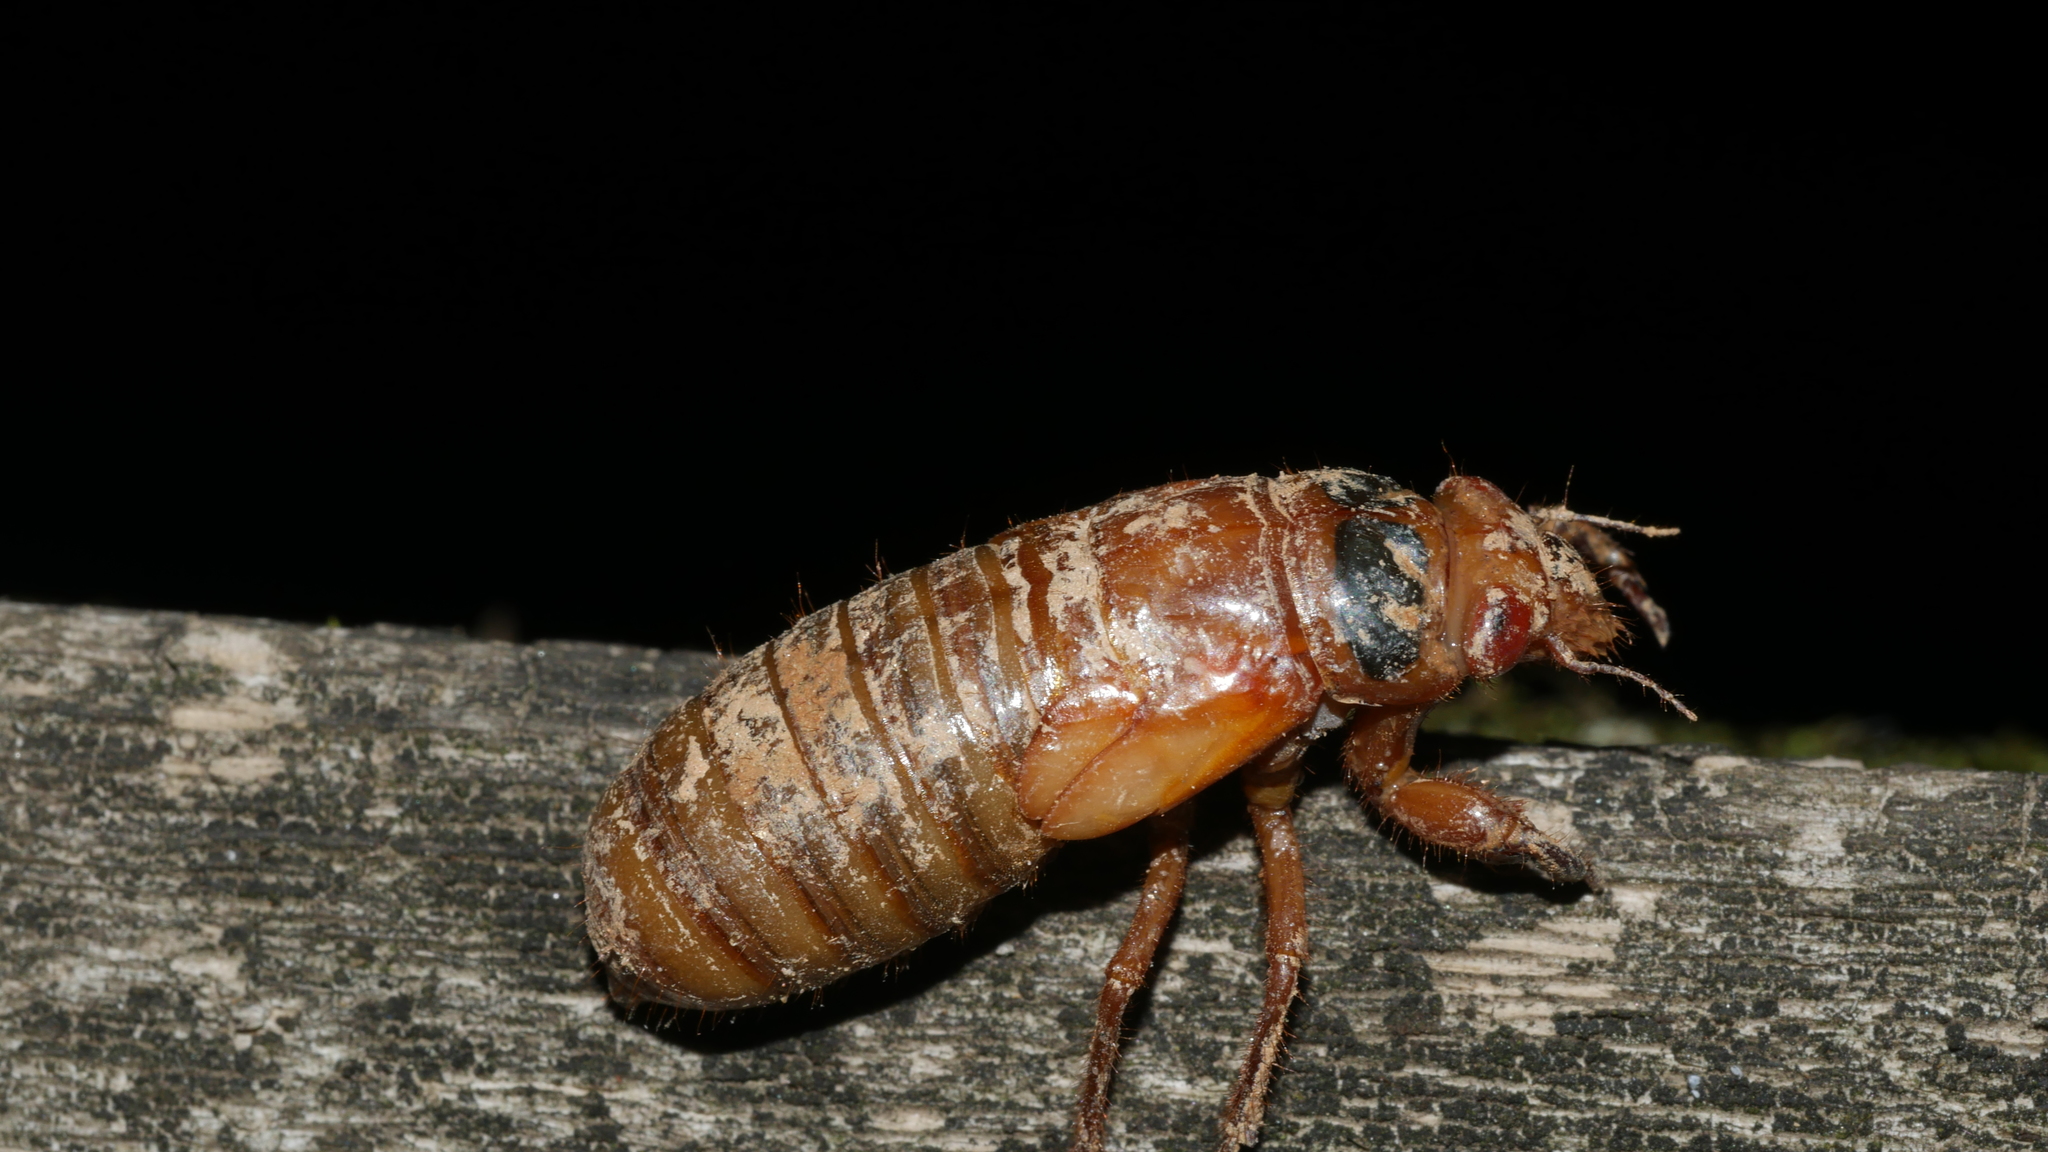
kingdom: Animalia
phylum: Arthropoda
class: Insecta
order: Hemiptera
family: Cicadidae
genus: Magicicada
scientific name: Magicicada
